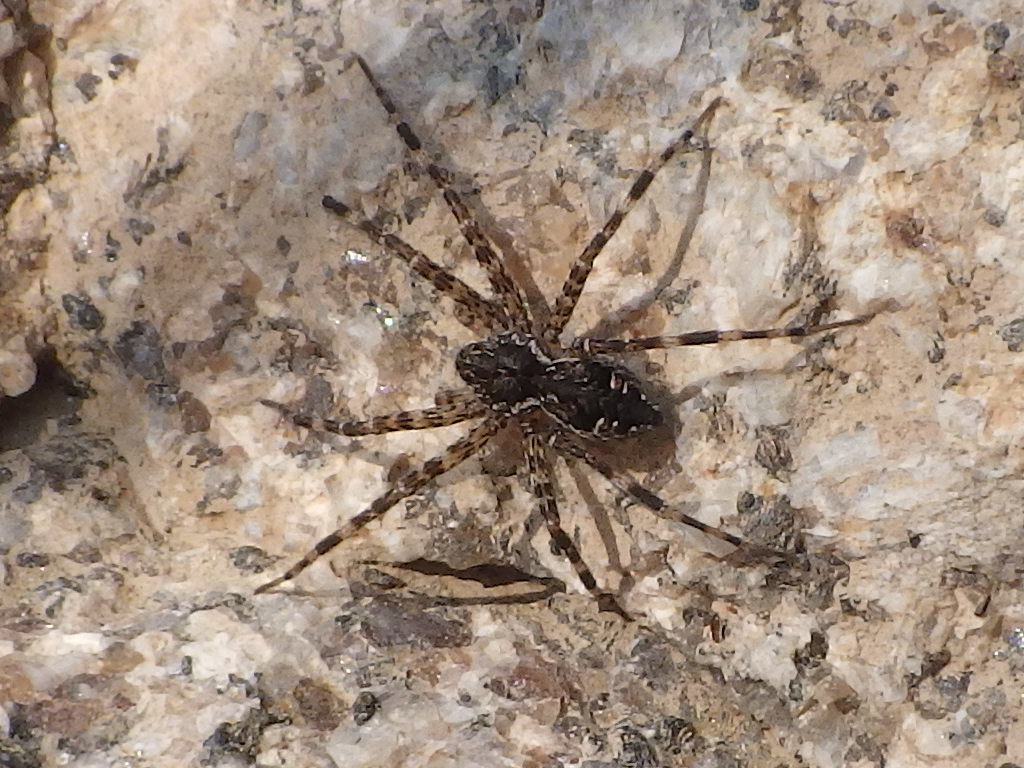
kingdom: Animalia
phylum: Arthropoda
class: Arachnida
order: Araneae
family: Pisauridae
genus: Dolomedes
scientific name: Dolomedes tenebrosus
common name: Dark fishing spider
